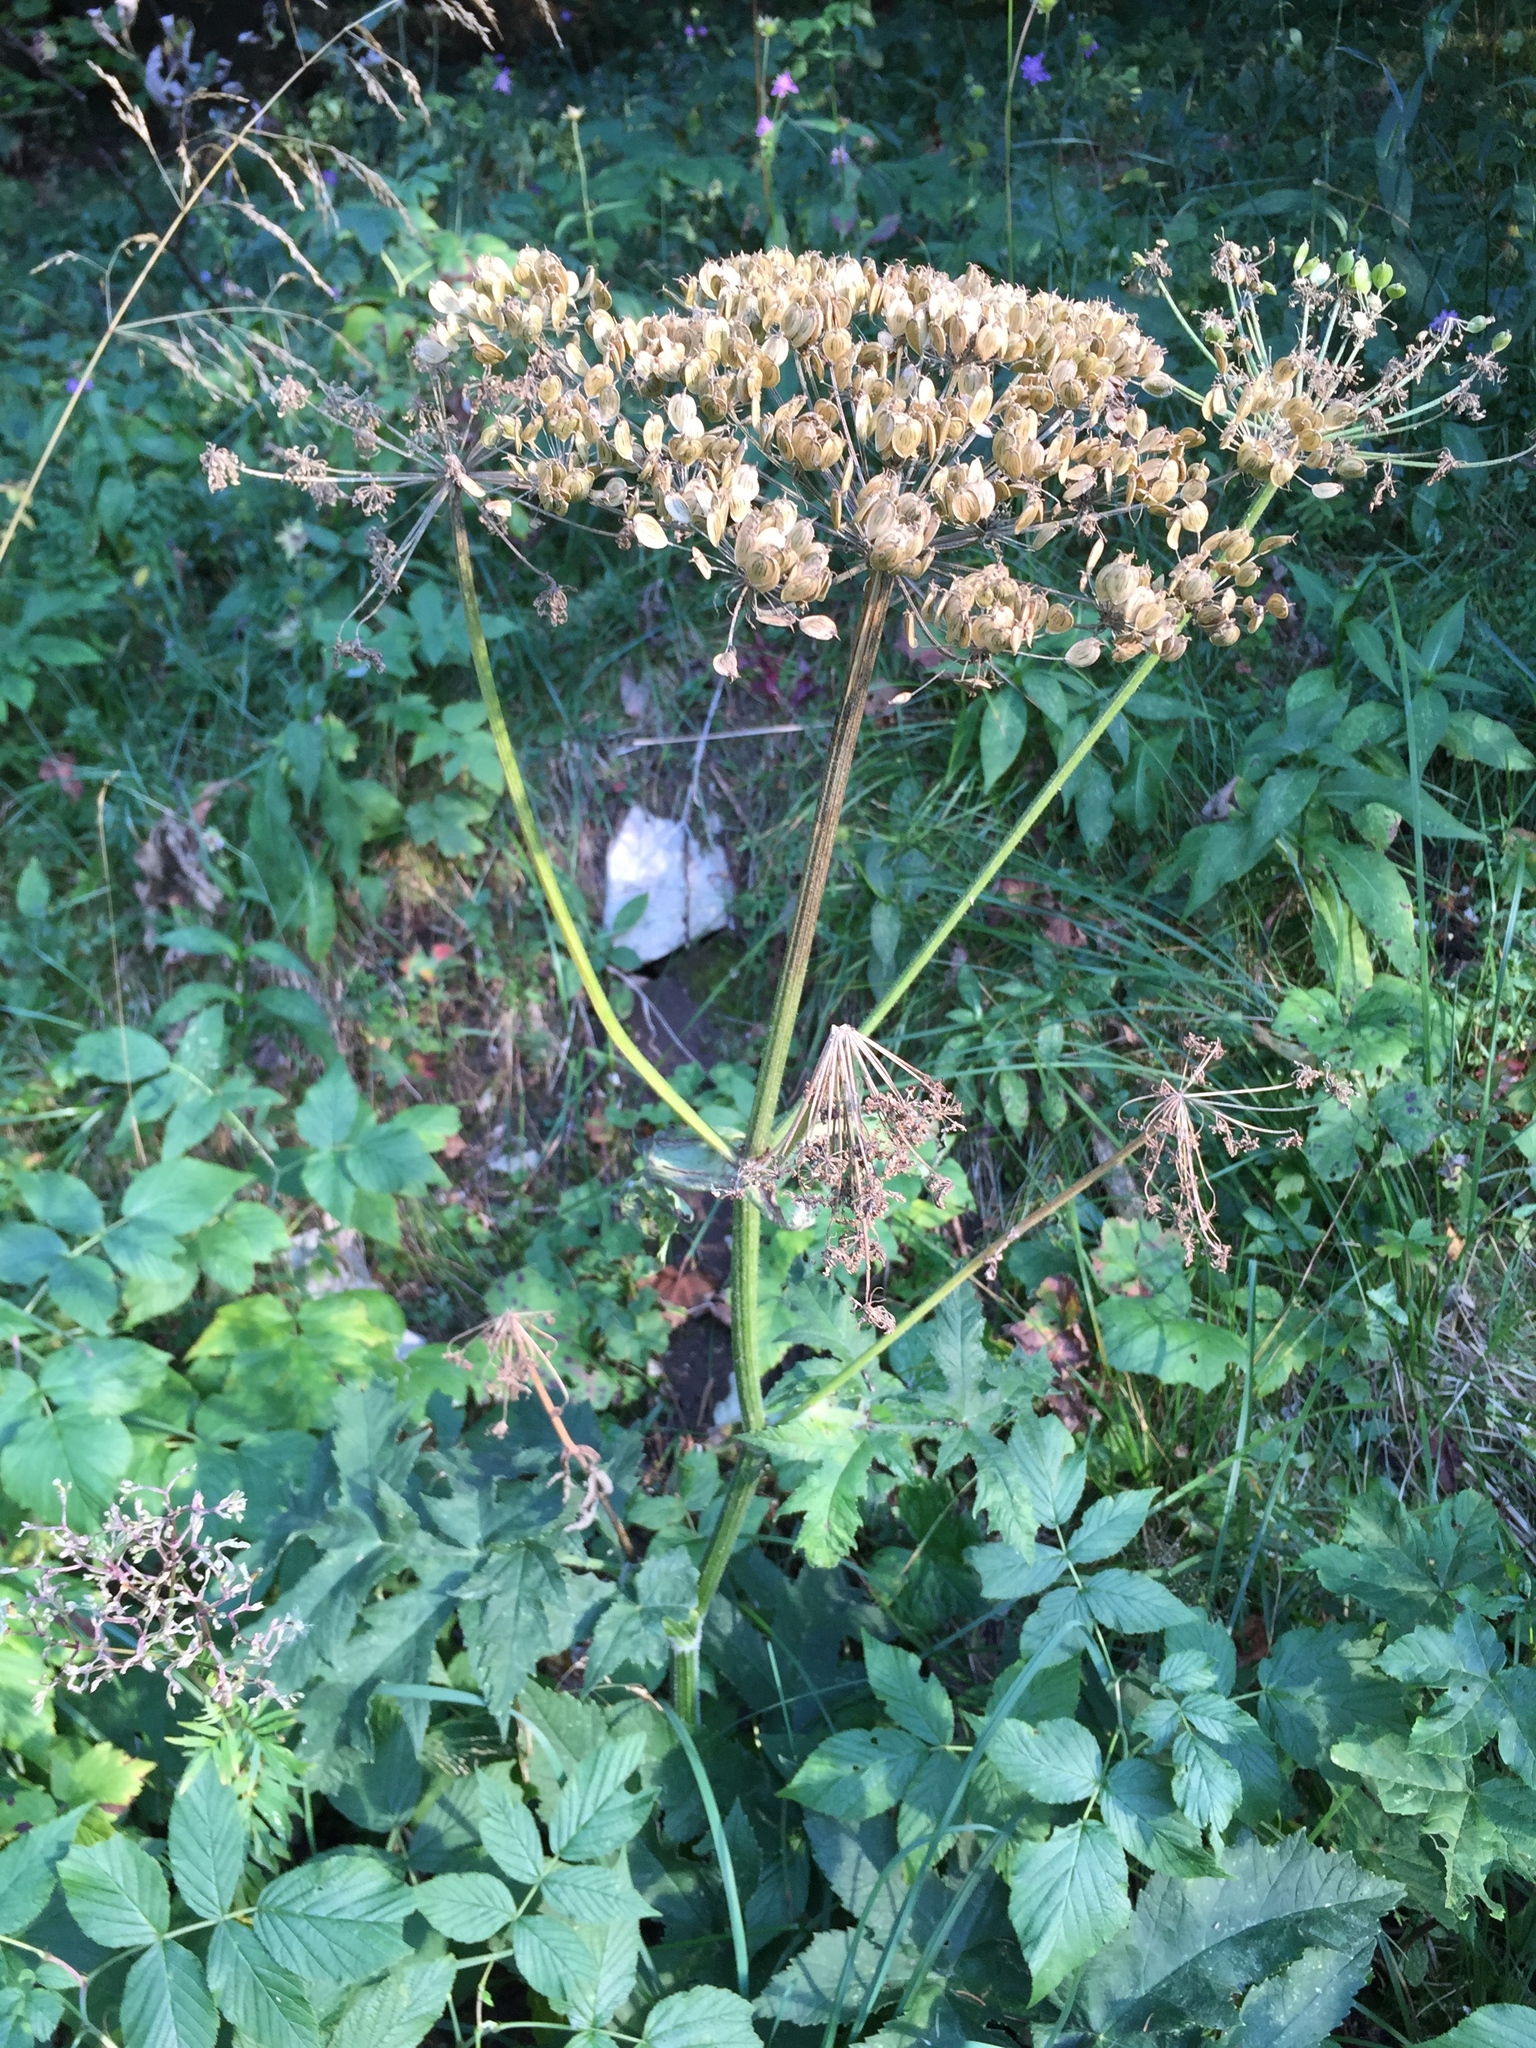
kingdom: Plantae
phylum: Tracheophyta
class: Magnoliopsida
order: Apiales
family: Apiaceae
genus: Heracleum
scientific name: Heracleum sphondylium
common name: Hogweed
